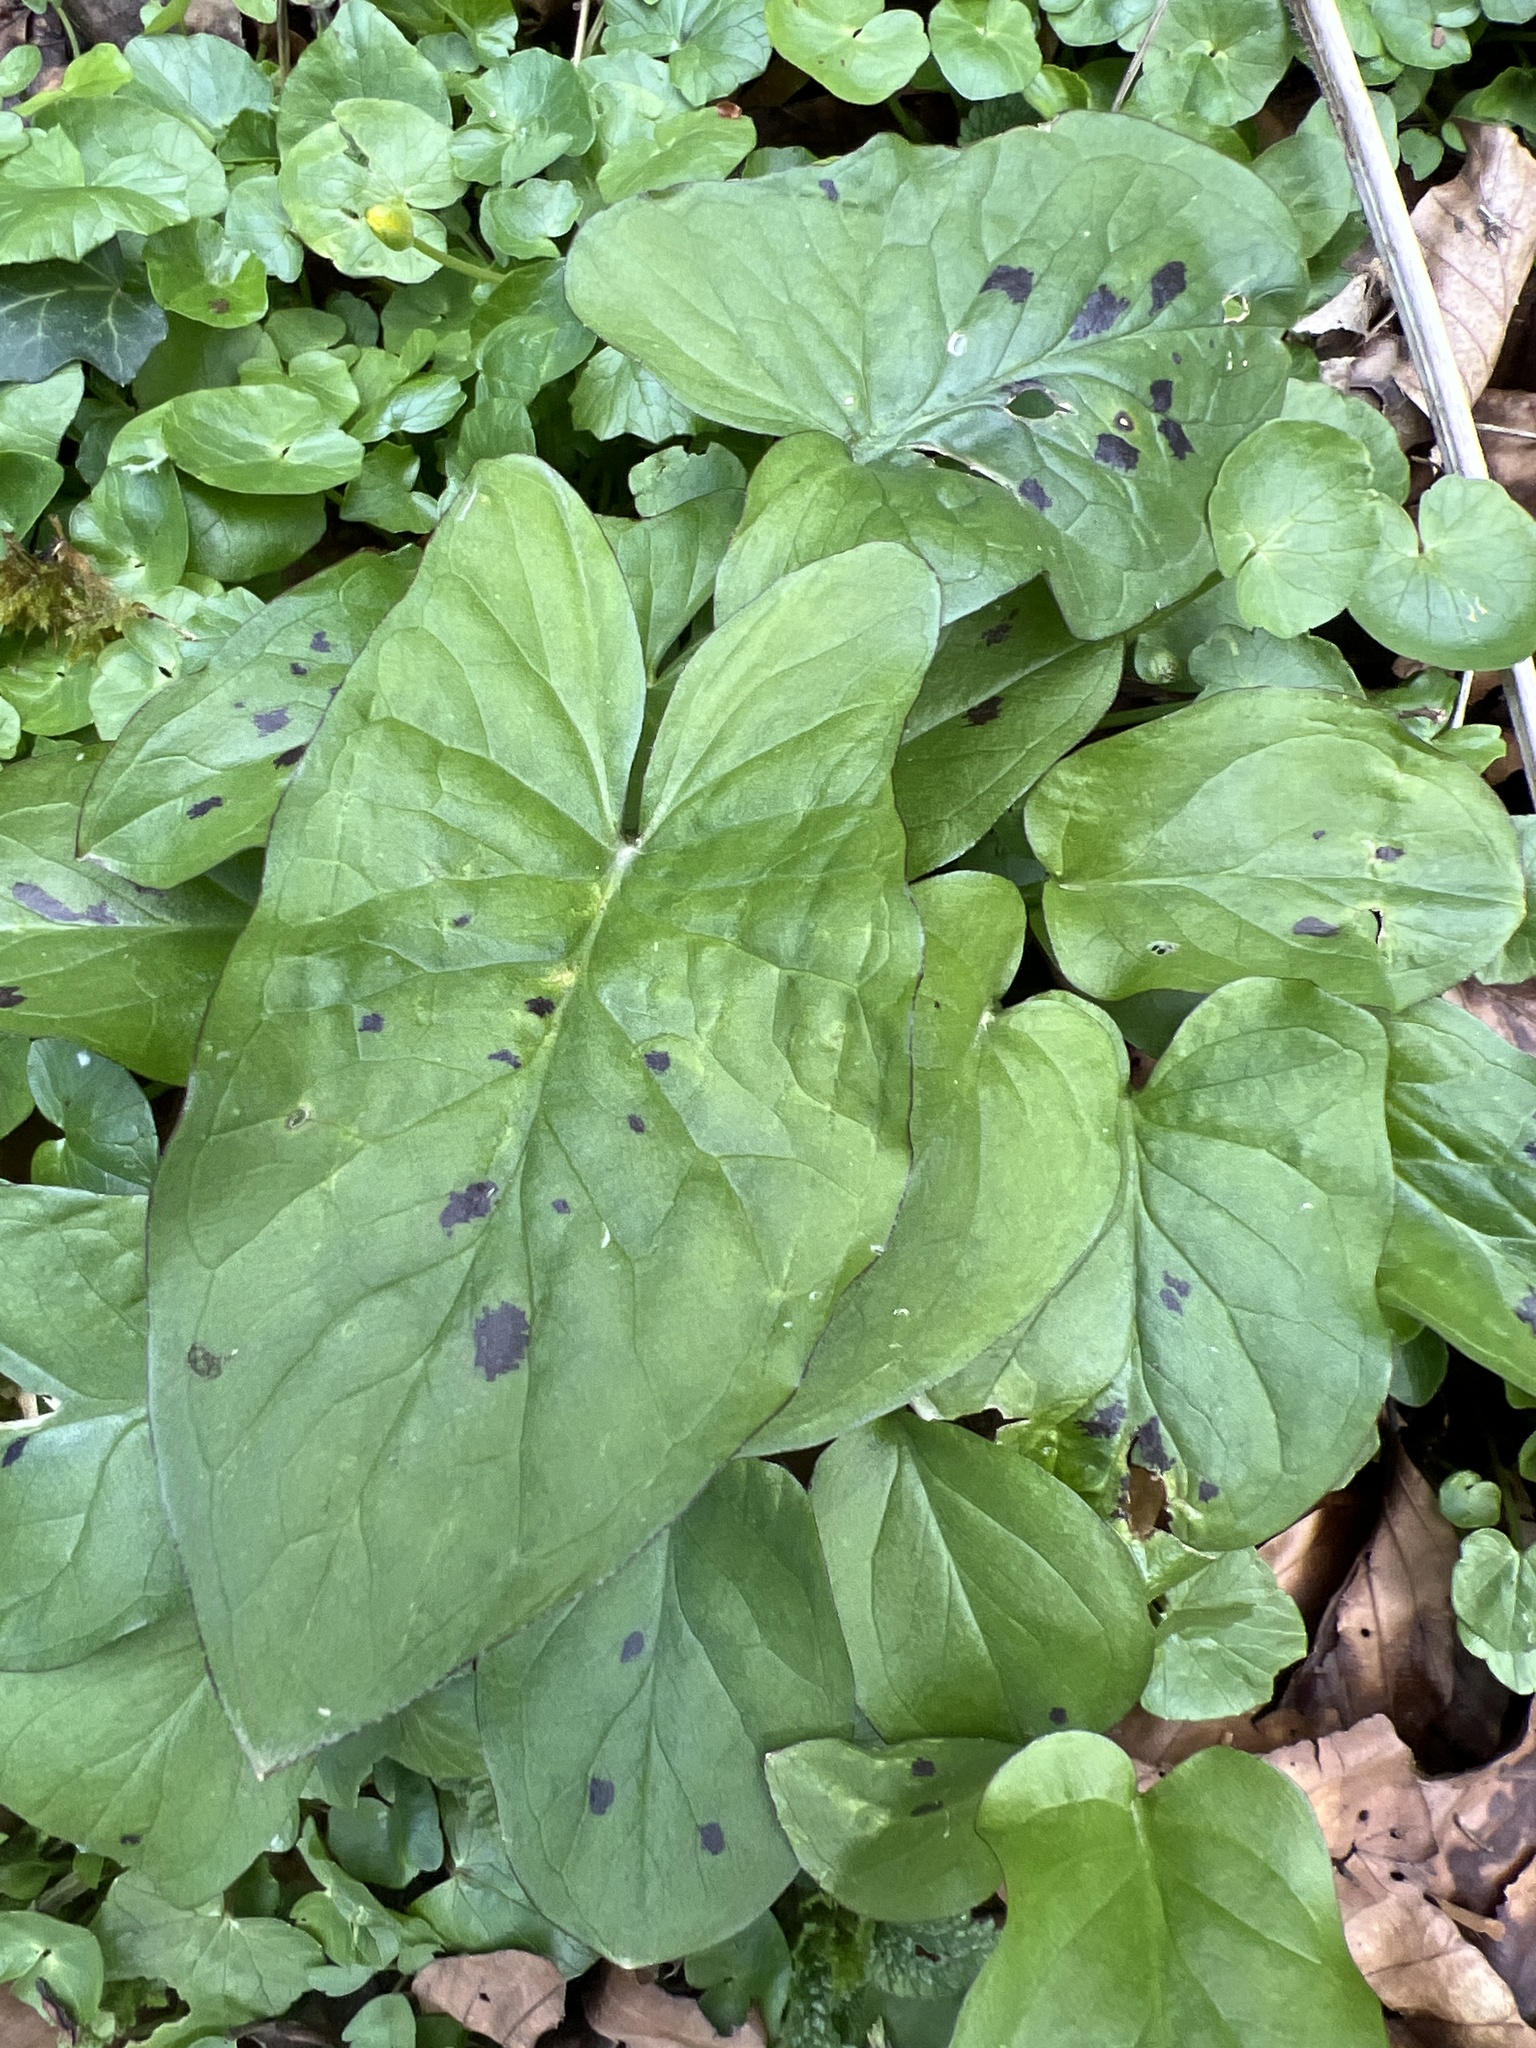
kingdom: Plantae
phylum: Tracheophyta
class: Liliopsida
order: Alismatales
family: Araceae
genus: Arum
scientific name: Arum maculatum
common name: Lords-and-ladies
